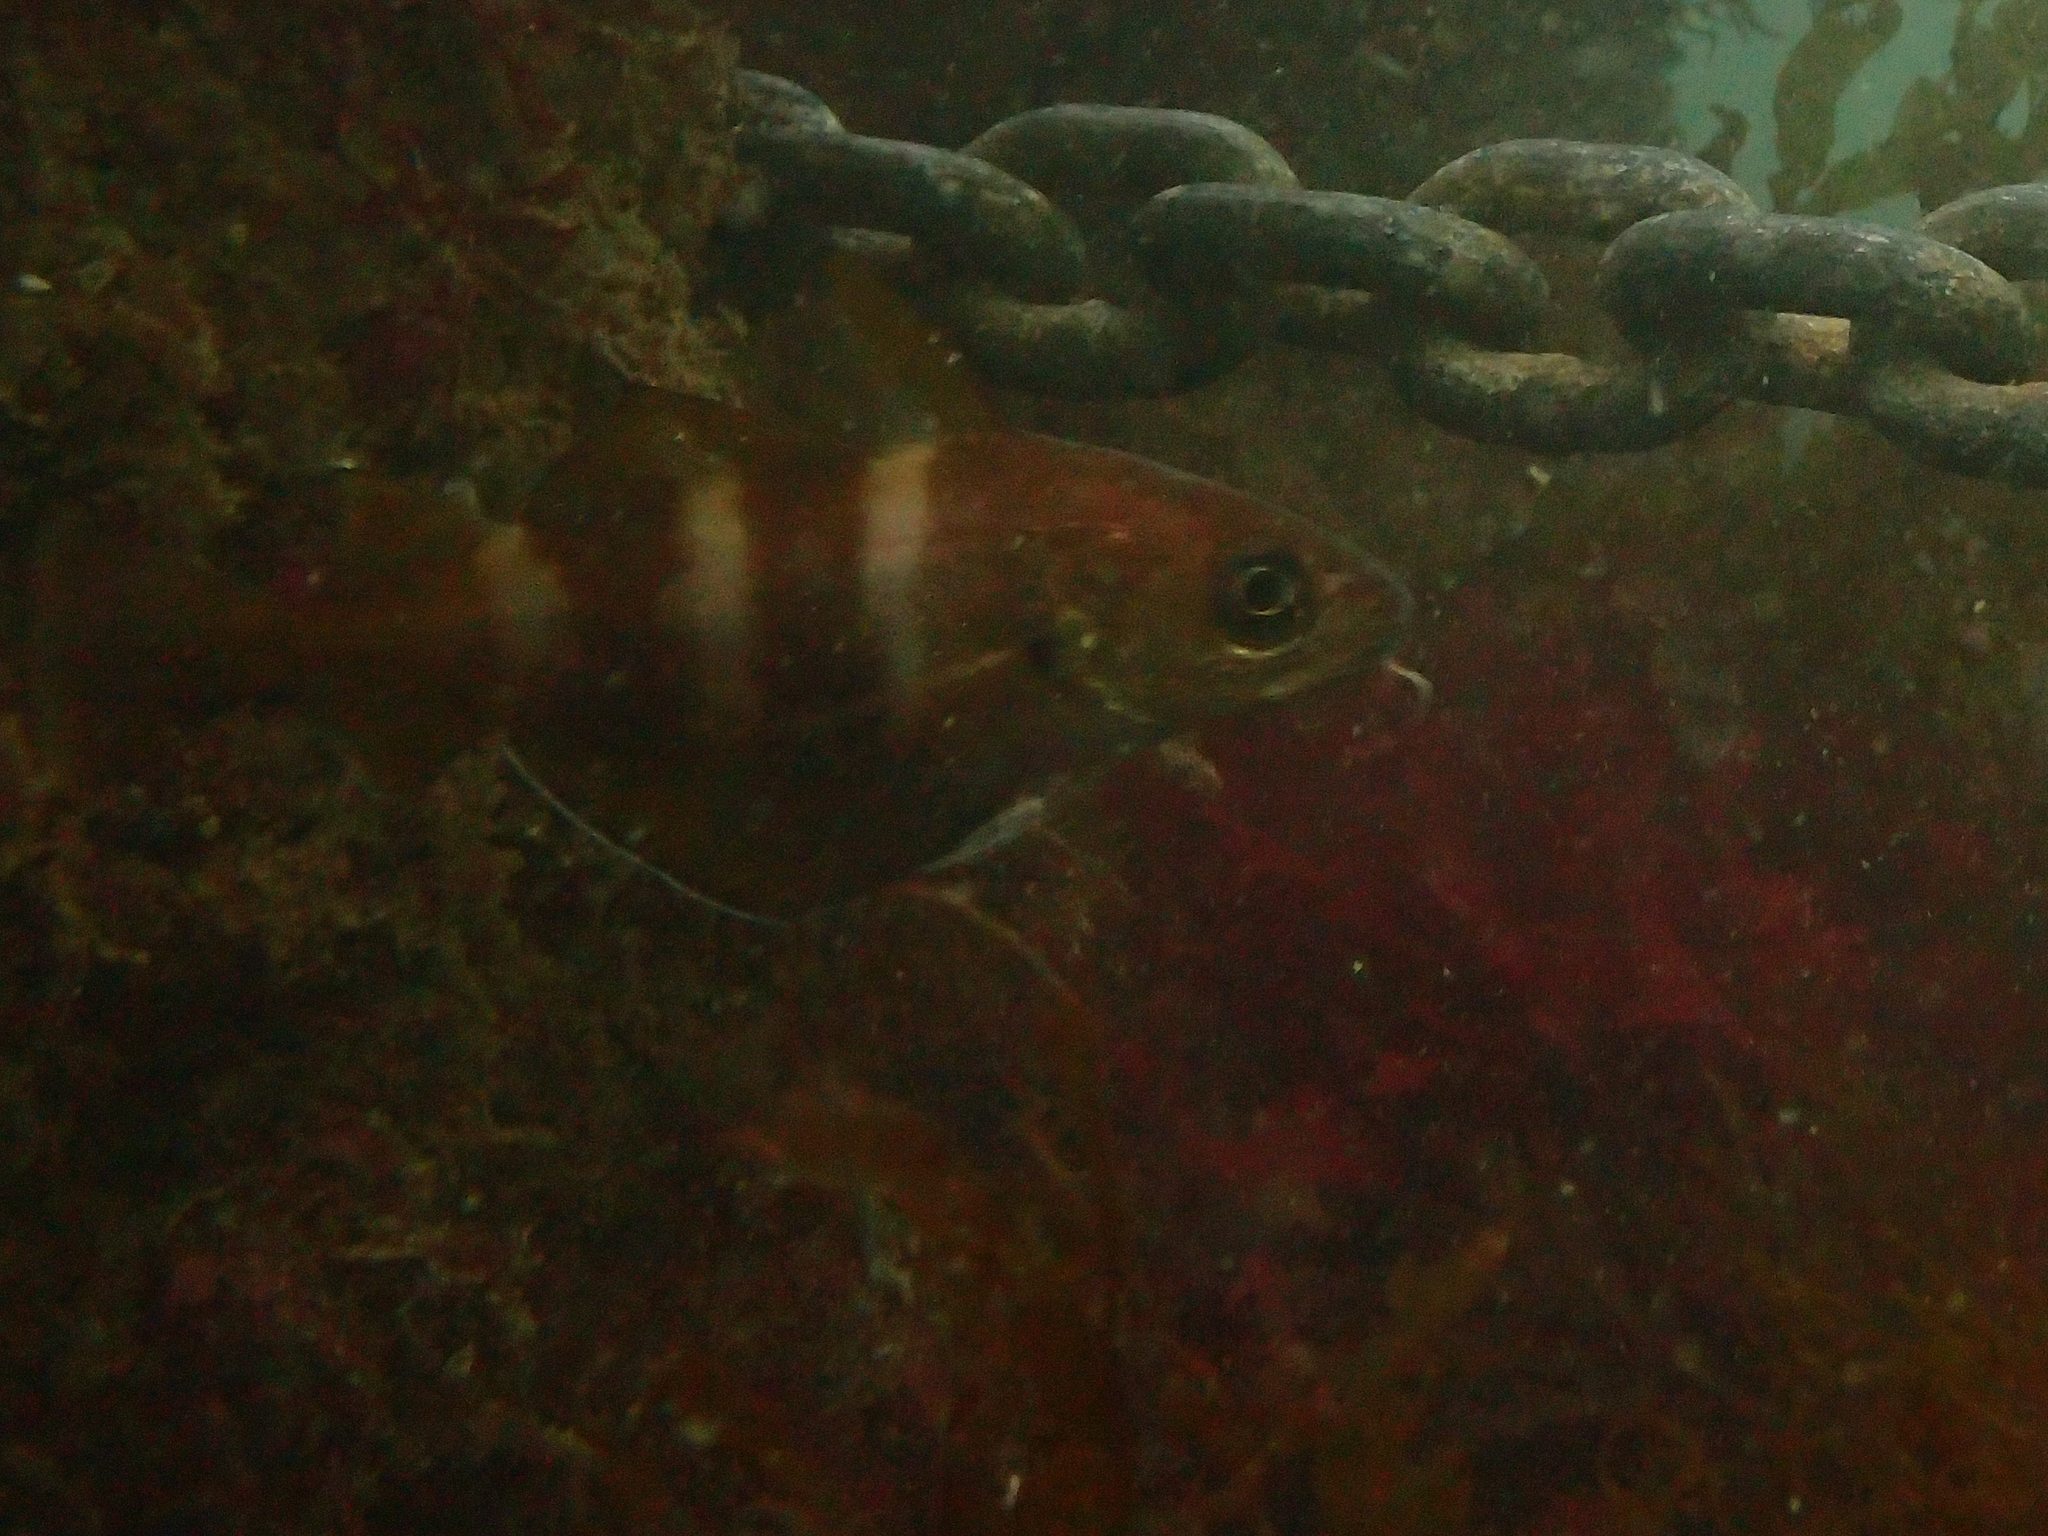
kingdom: Animalia
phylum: Chordata
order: Gadiformes
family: Gadidae
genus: Trisopterus
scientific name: Trisopterus luscus
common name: Bib
